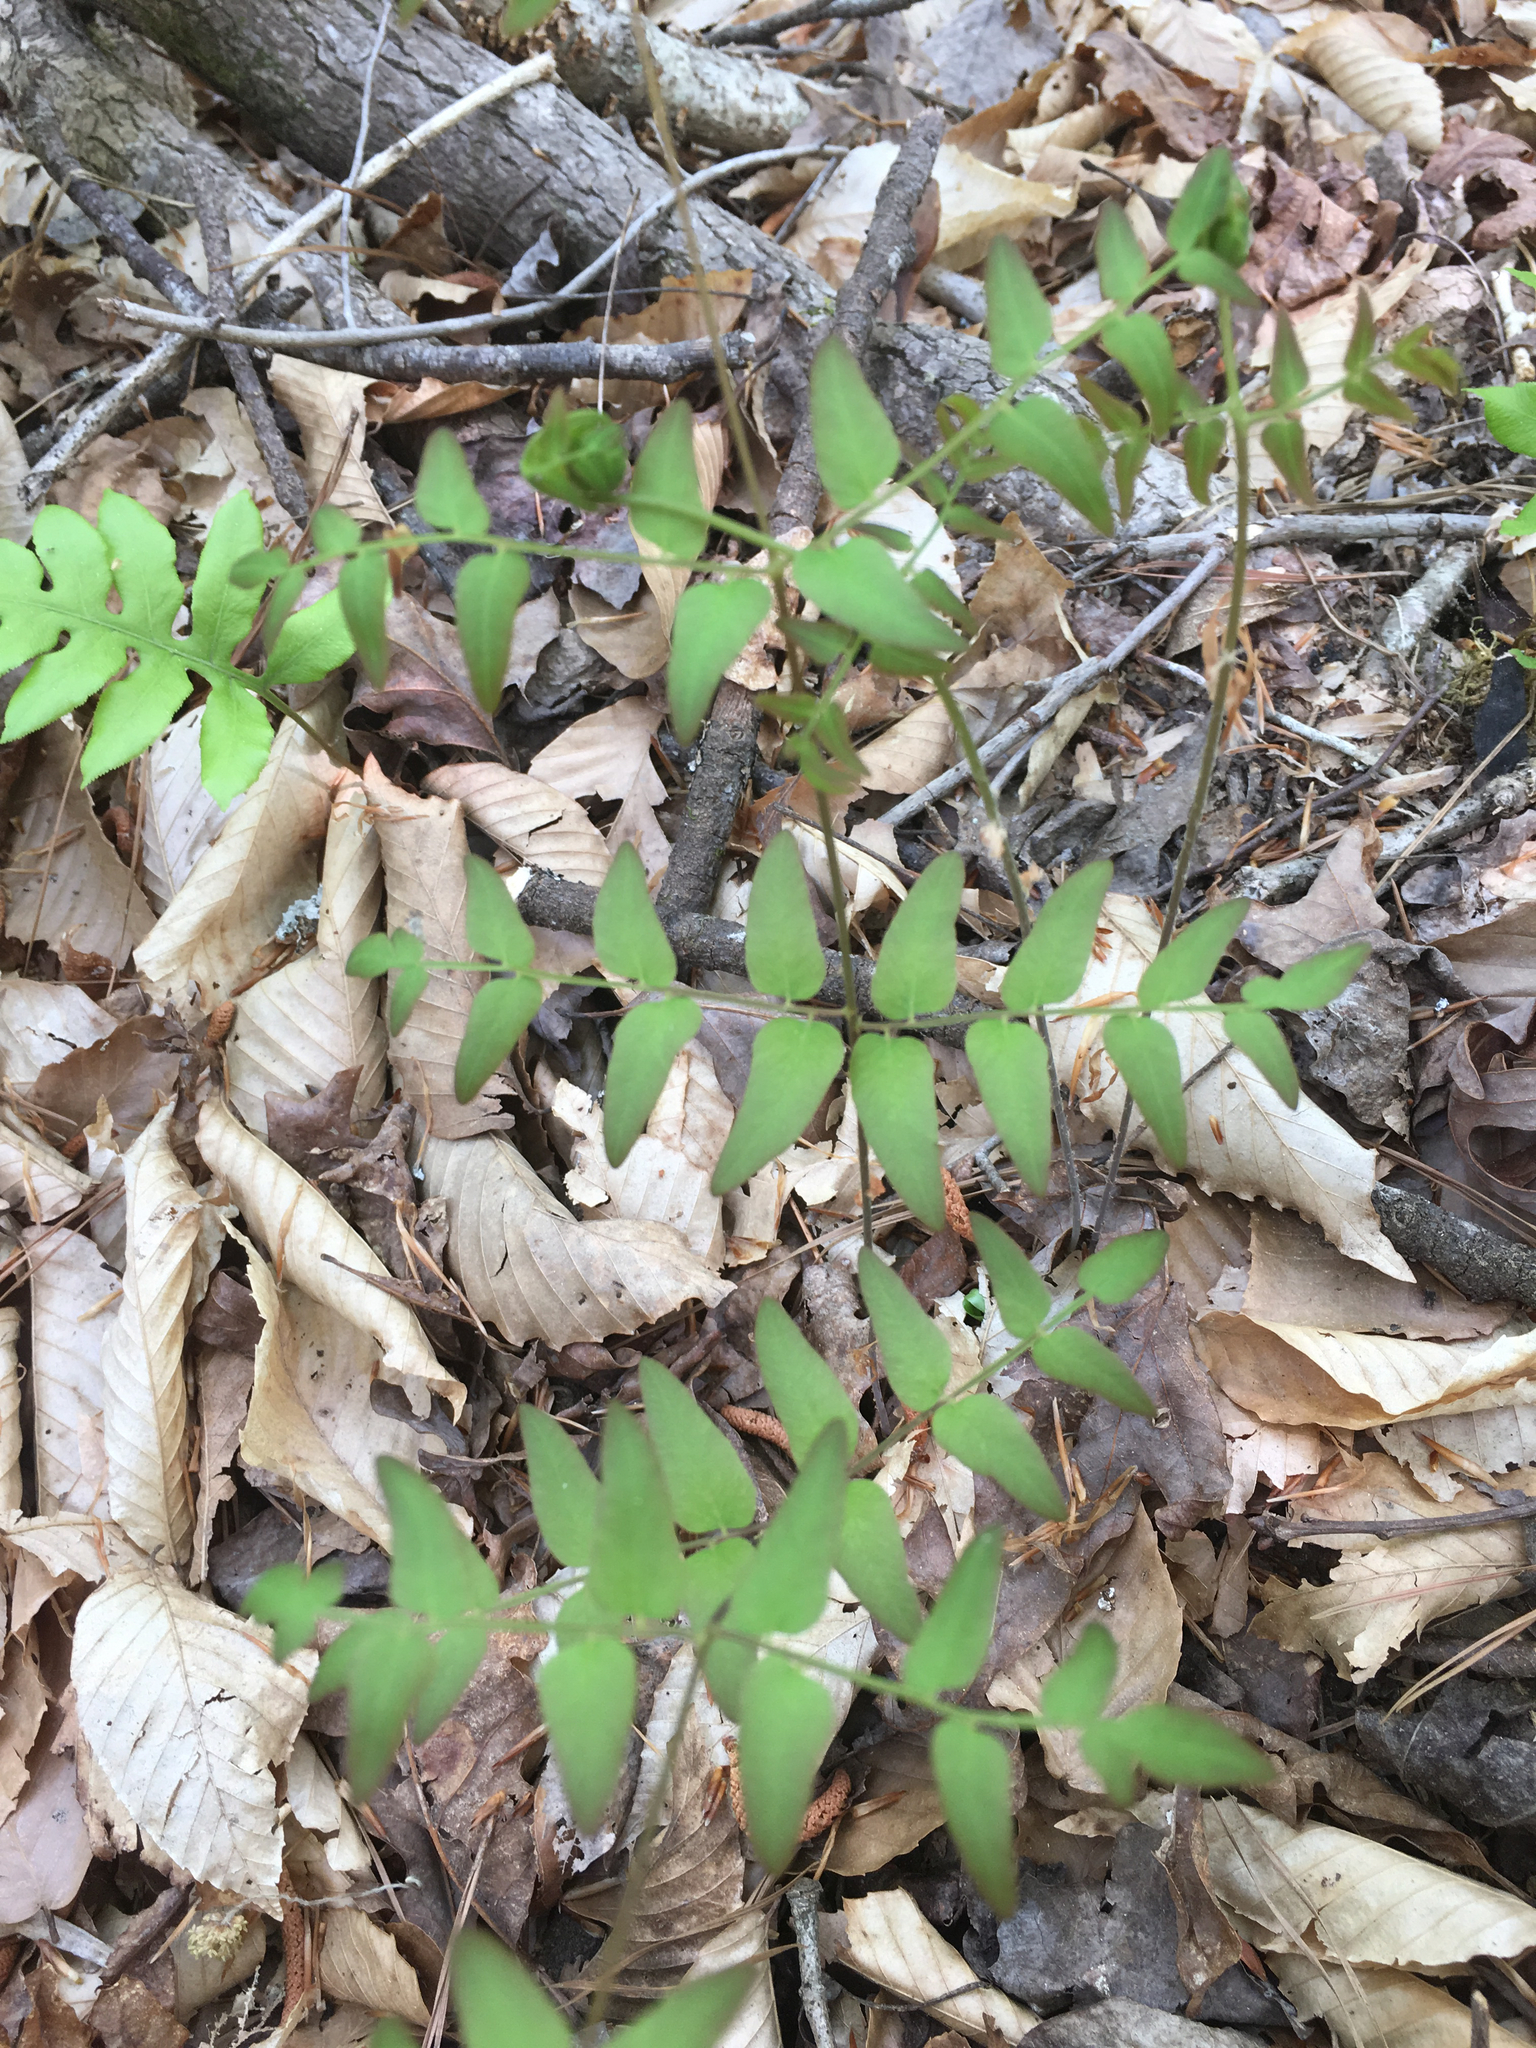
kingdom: Plantae
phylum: Tracheophyta
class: Polypodiopsida
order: Osmundales
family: Osmundaceae
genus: Osmunda
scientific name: Osmunda spectabilis
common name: American royal fern
